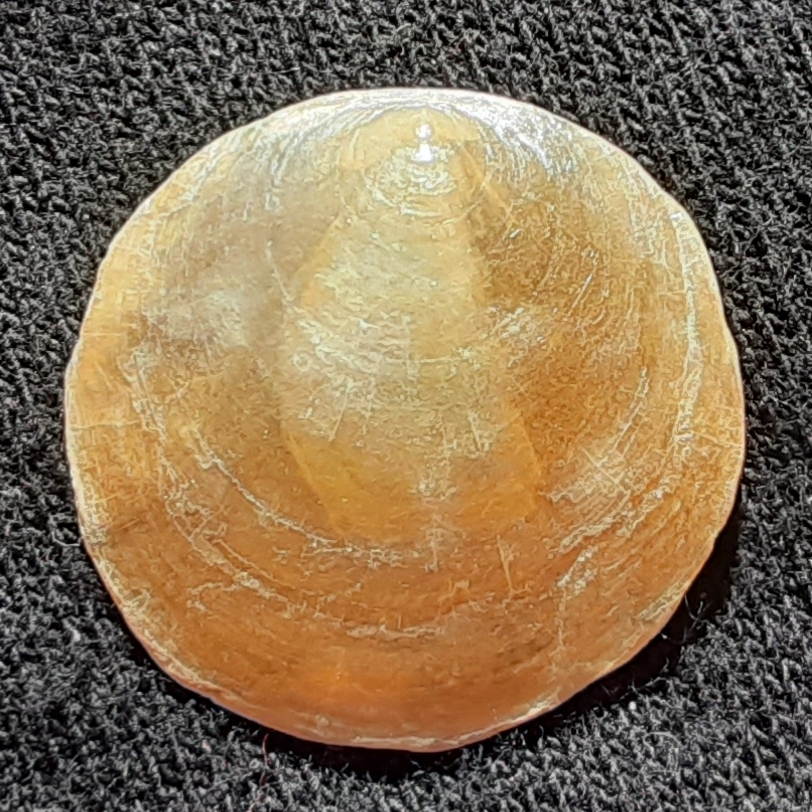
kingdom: Animalia
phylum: Mollusca
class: Bivalvia
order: Pectinida
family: Anomiidae
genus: Anomia
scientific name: Anomia simplex
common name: Common jingle shell
